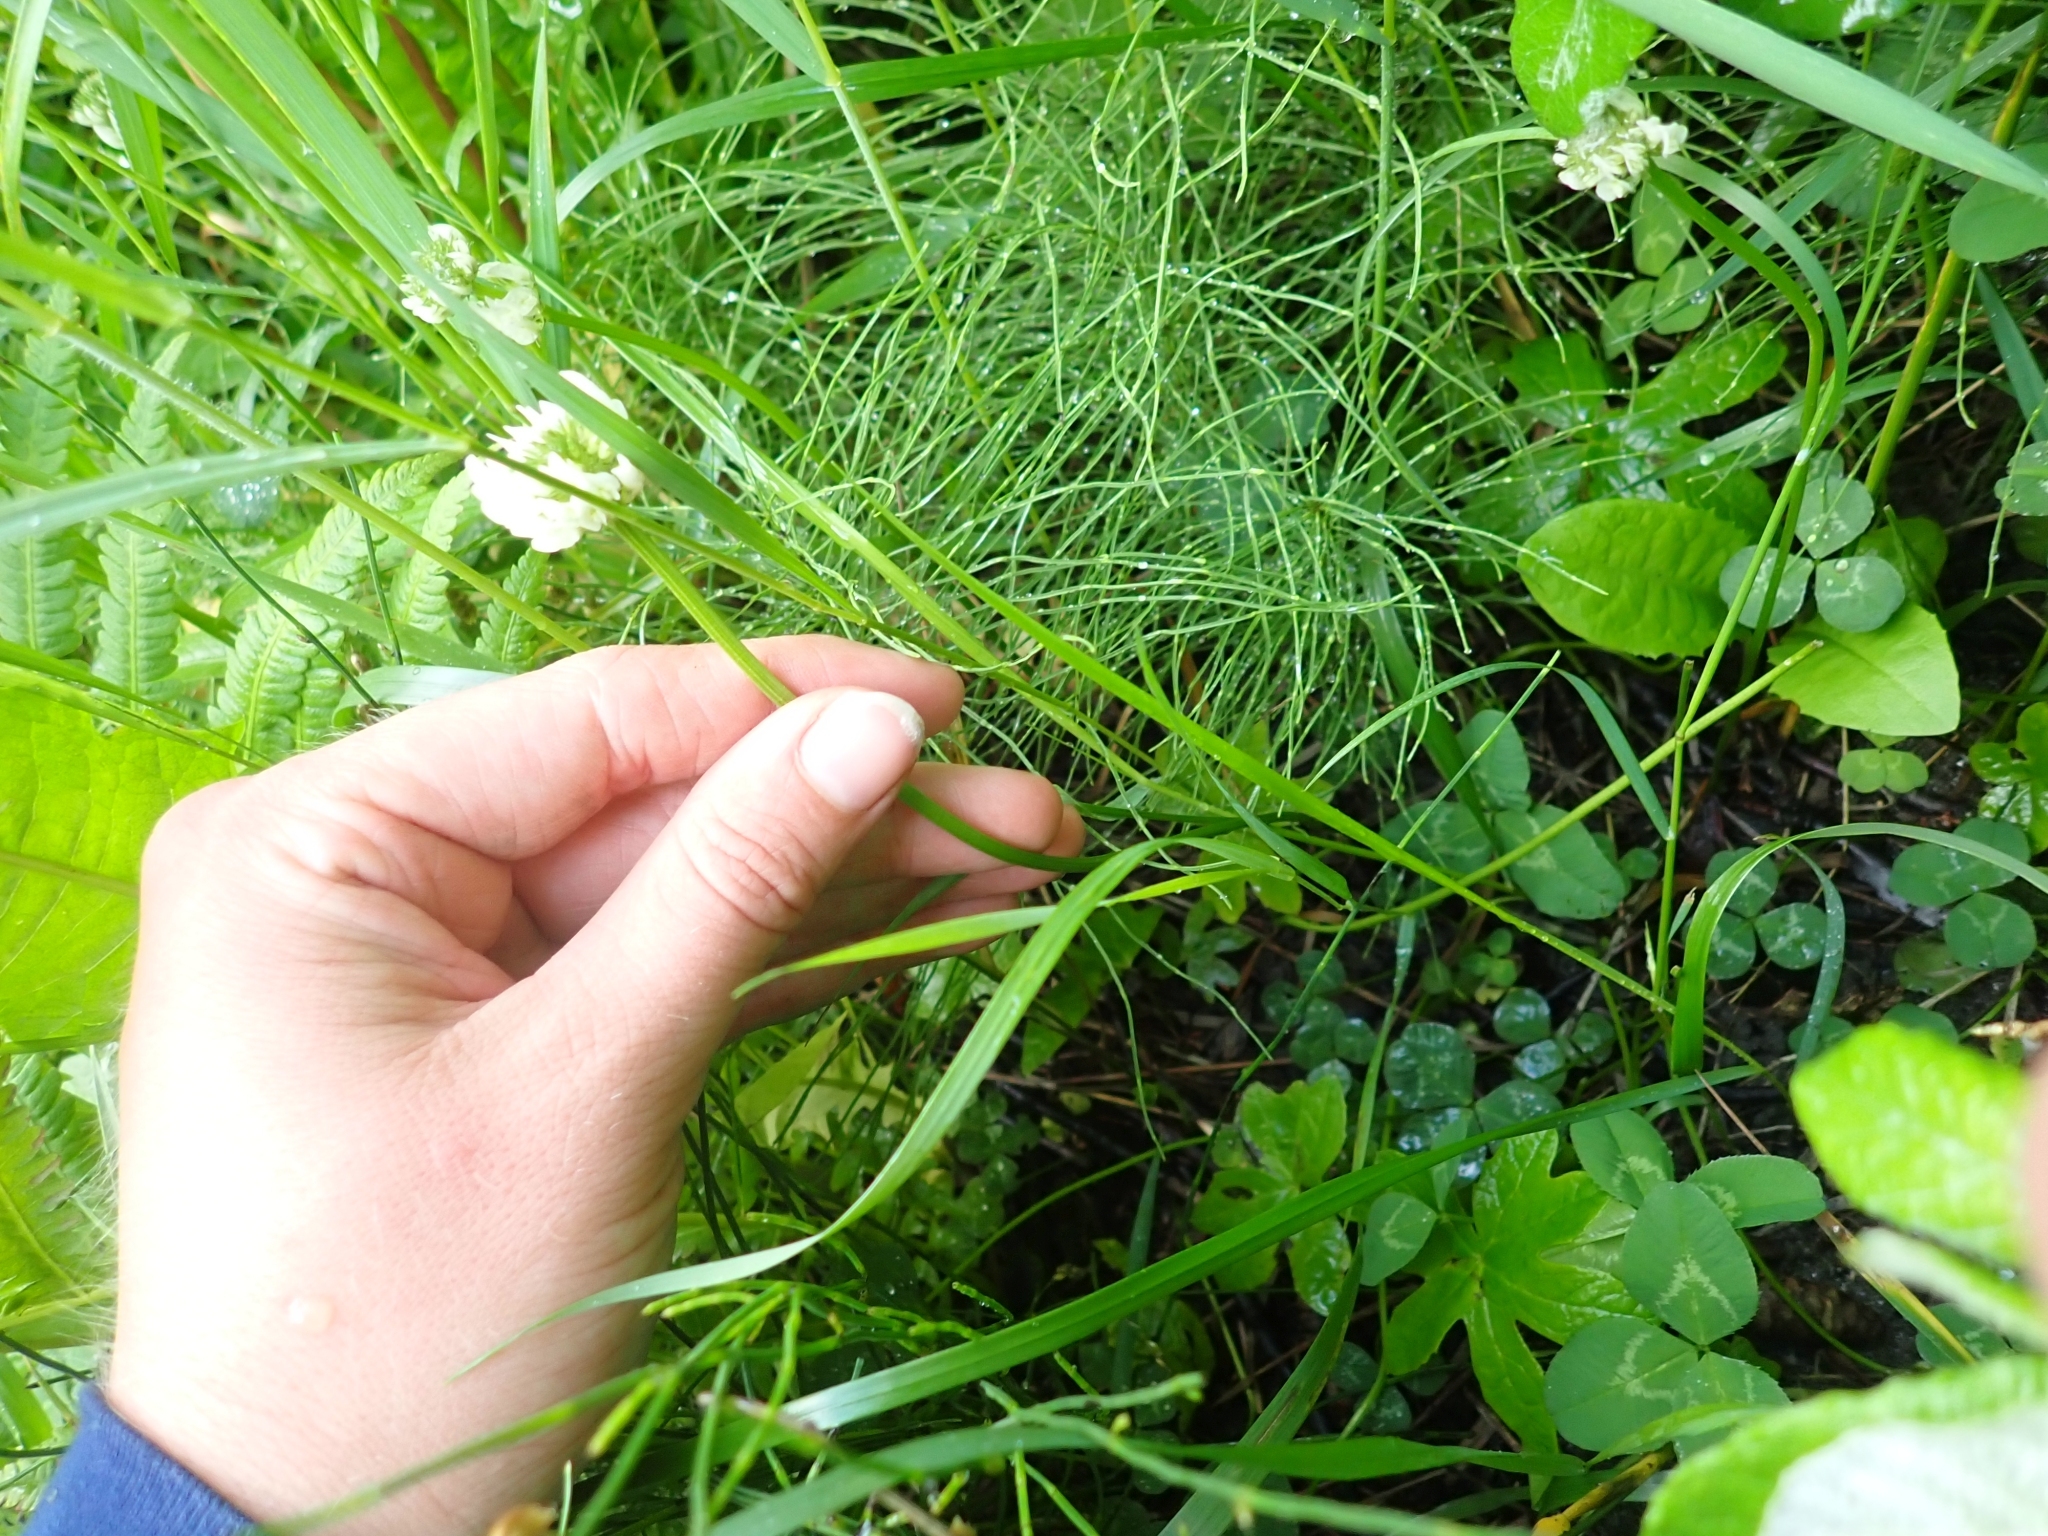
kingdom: Plantae
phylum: Tracheophyta
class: Magnoliopsida
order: Fabales
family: Fabaceae
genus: Trifolium
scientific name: Trifolium repens
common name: White clover
